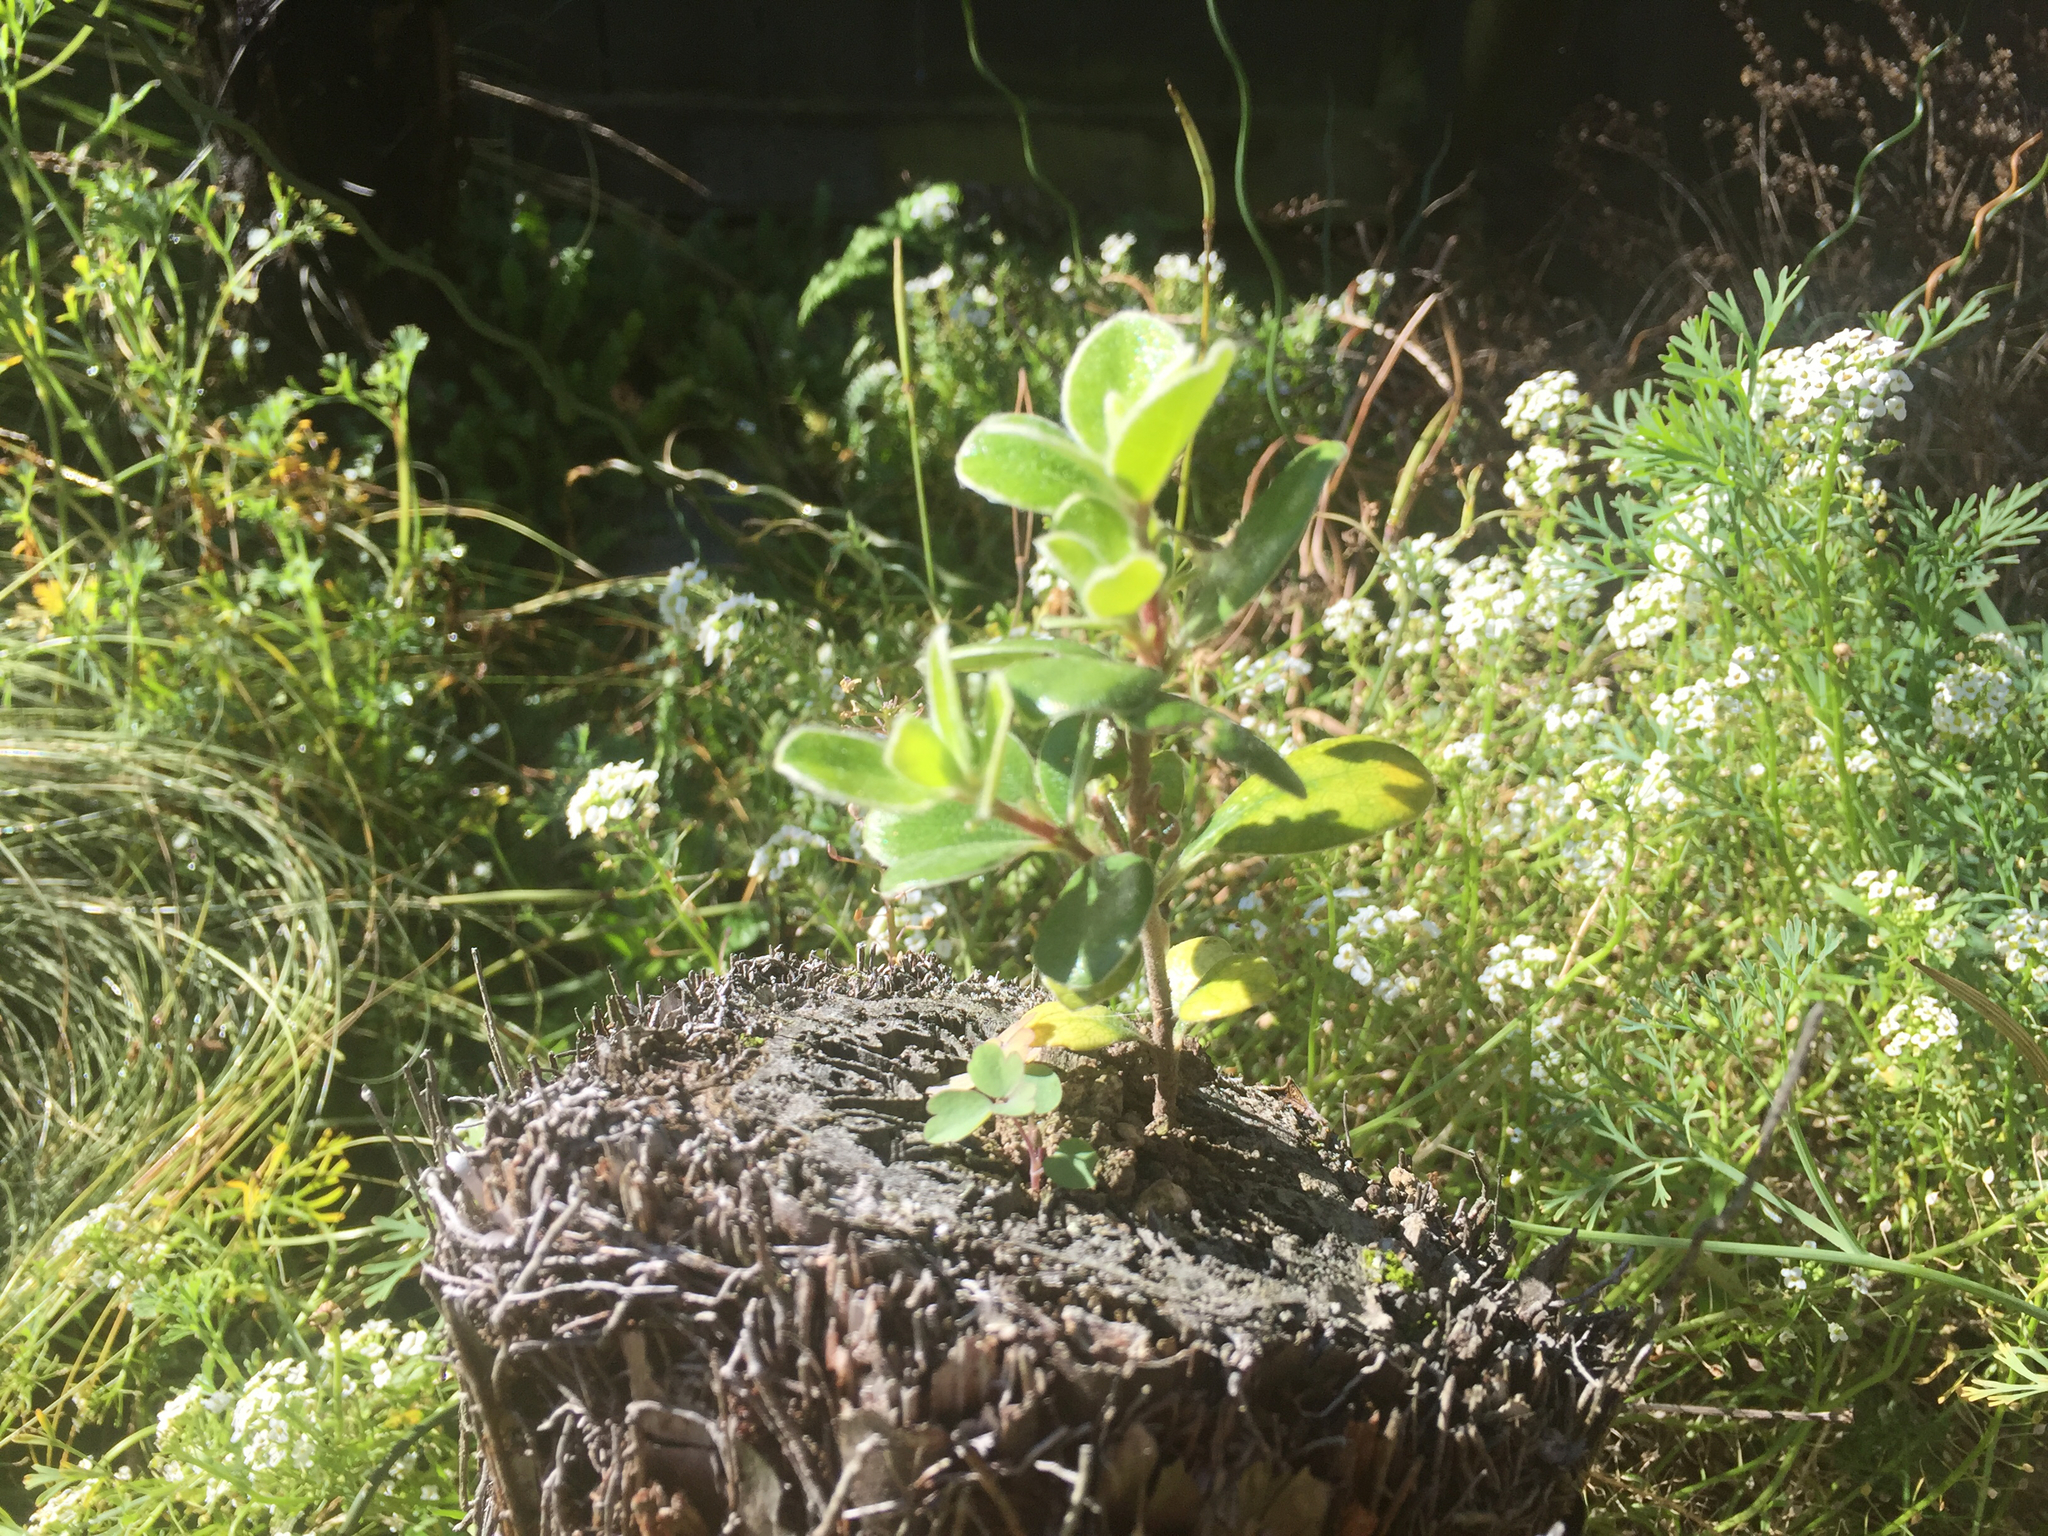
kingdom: Plantae
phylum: Tracheophyta
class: Magnoliopsida
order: Apiales
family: Pittosporaceae
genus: Pittosporum
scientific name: Pittosporum crassifolium
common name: Karo
